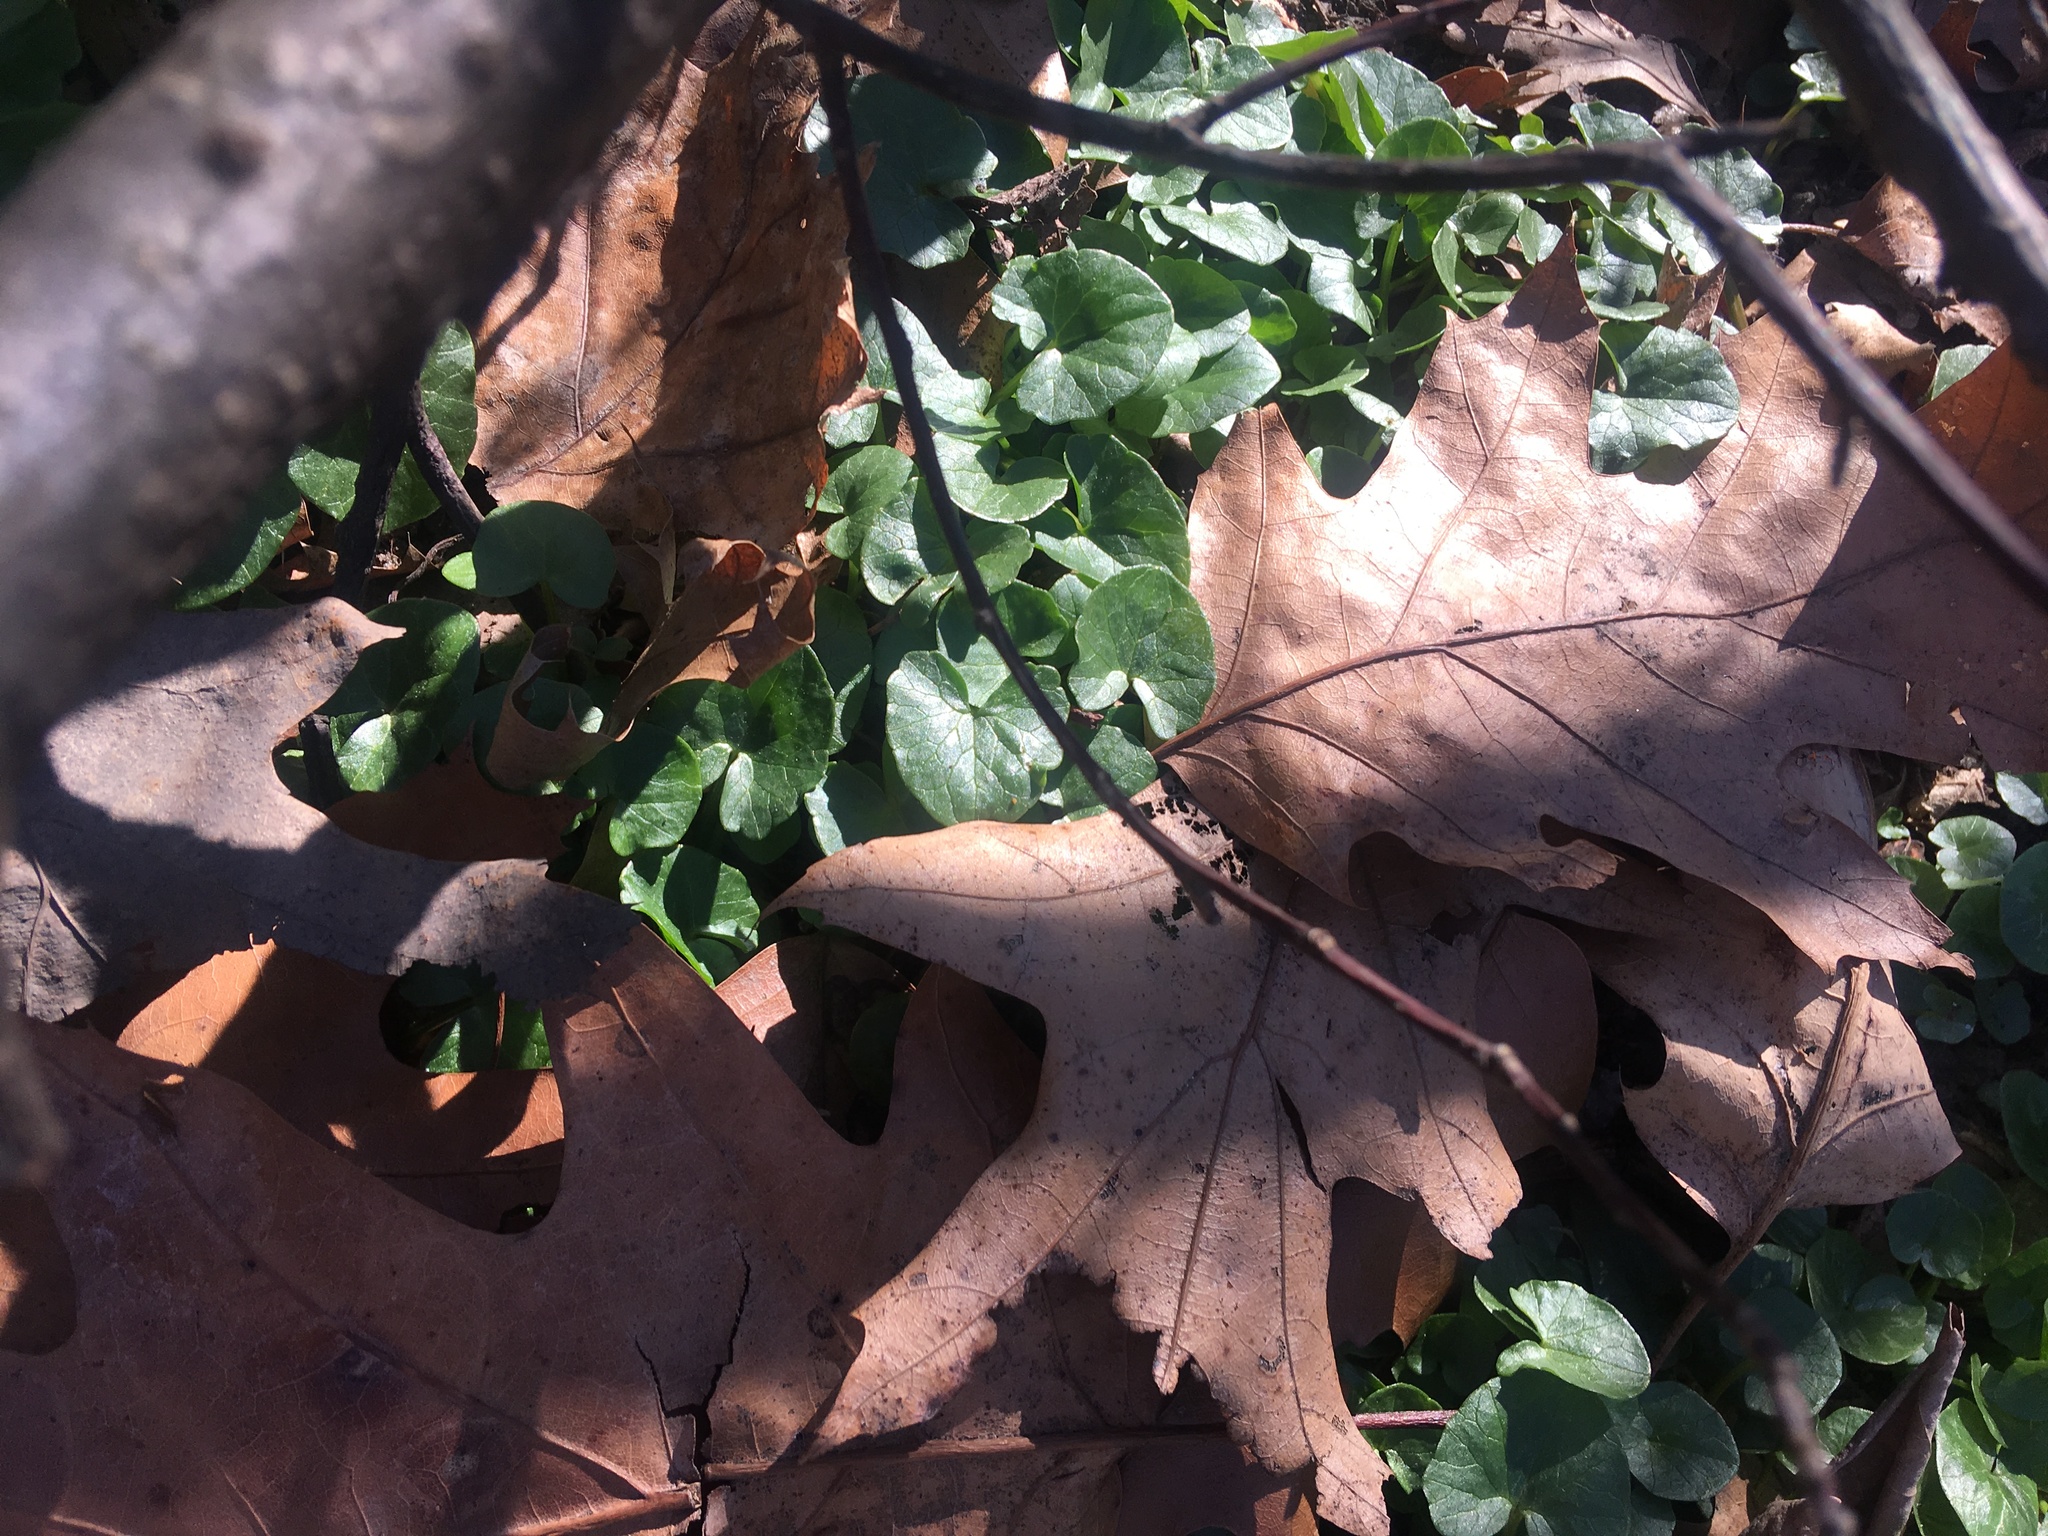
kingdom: Plantae
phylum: Tracheophyta
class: Magnoliopsida
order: Ranunculales
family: Ranunculaceae
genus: Ficaria
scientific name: Ficaria verna
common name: Lesser celandine
